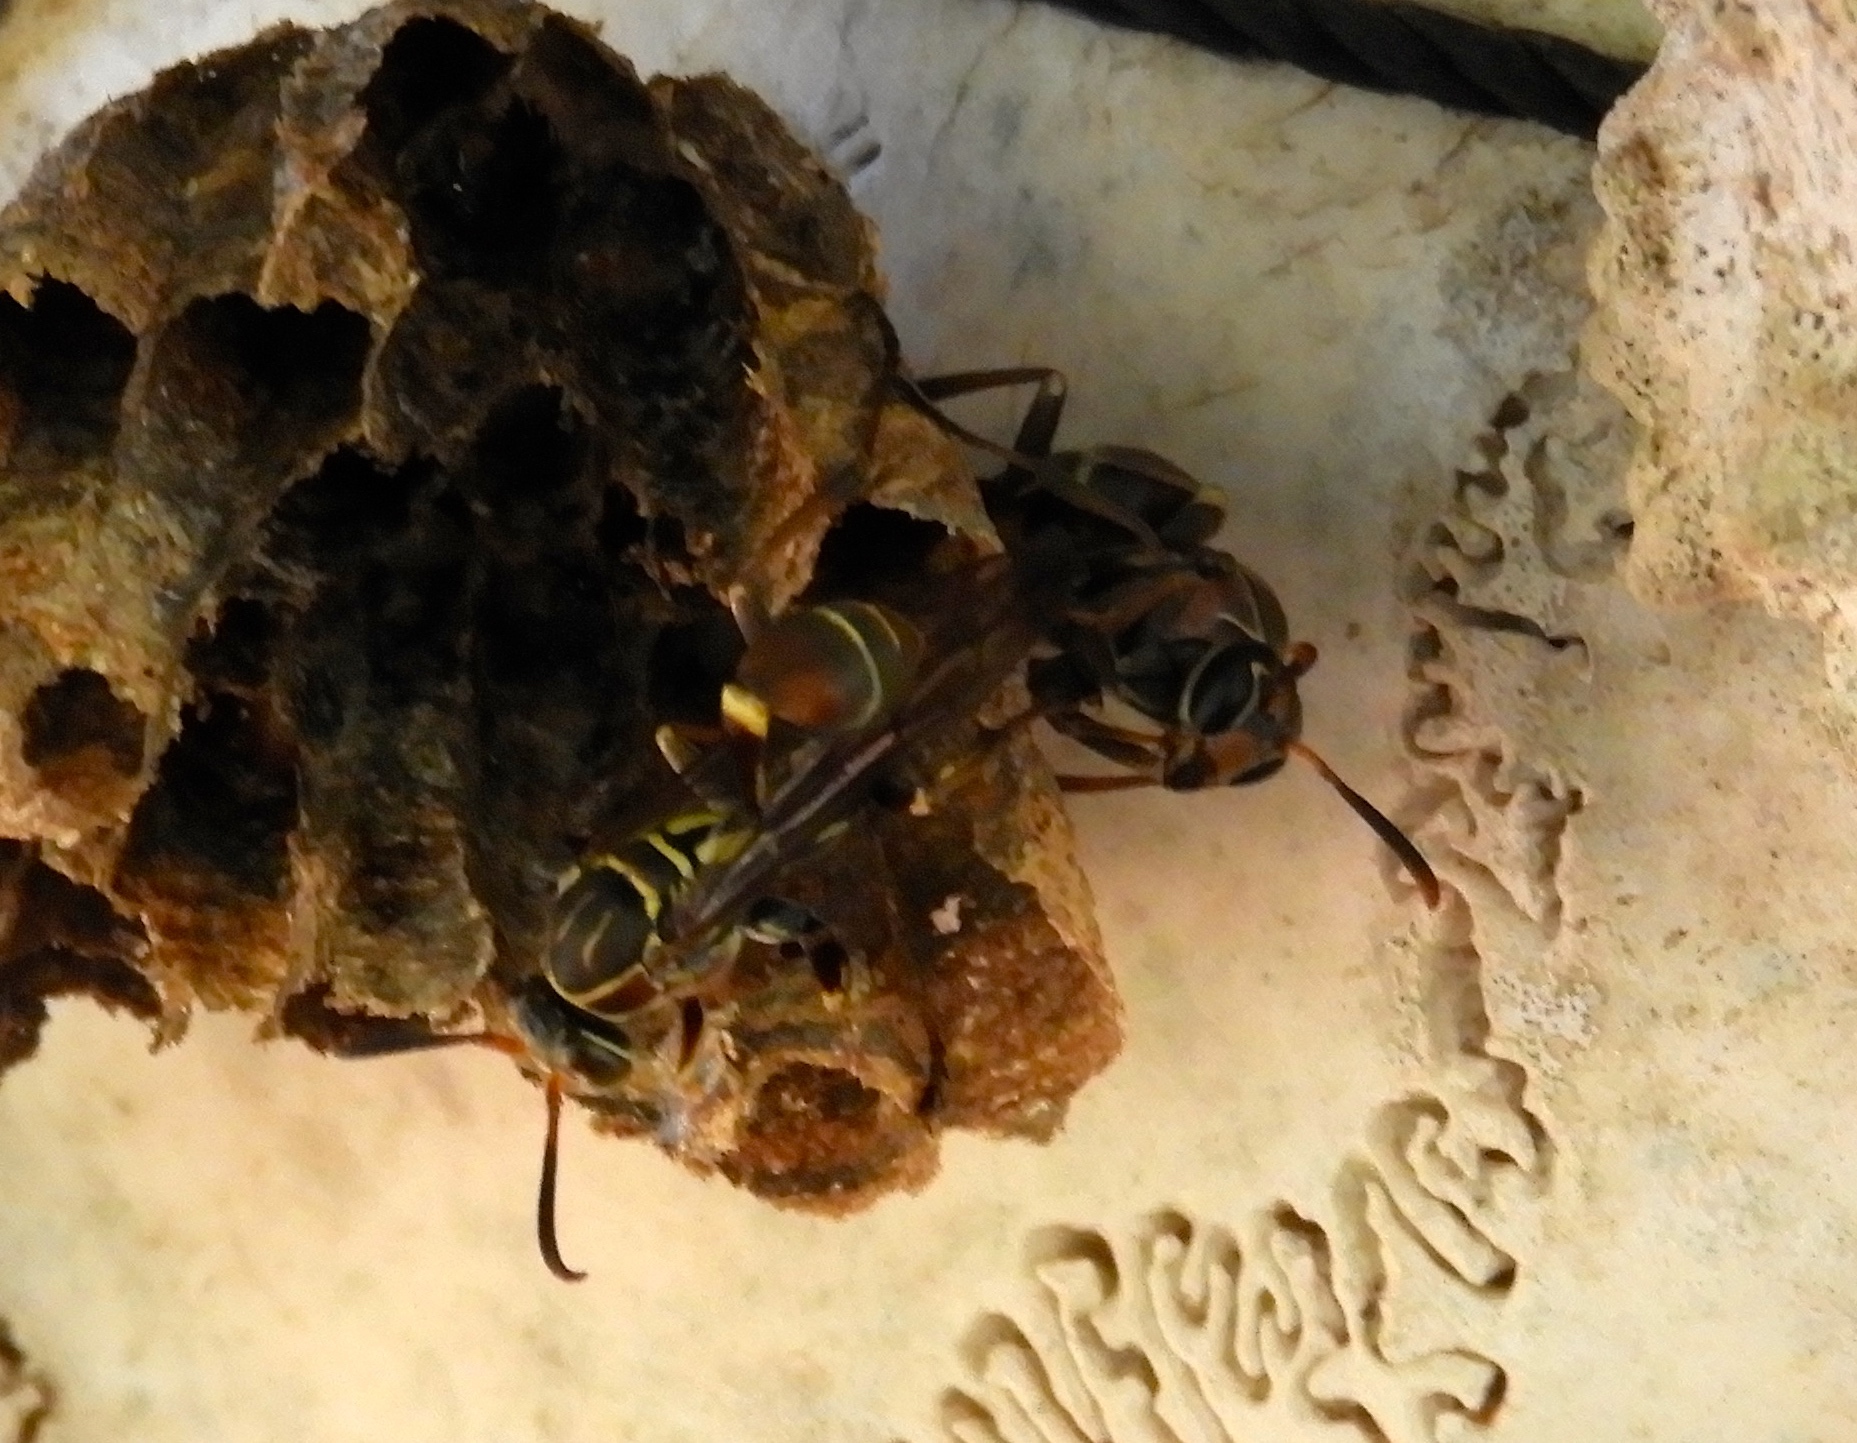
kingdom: Animalia
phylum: Arthropoda
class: Insecta
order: Hymenoptera
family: Vespidae
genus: Mischocyttarus
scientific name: Mischocyttarus mexicanus
